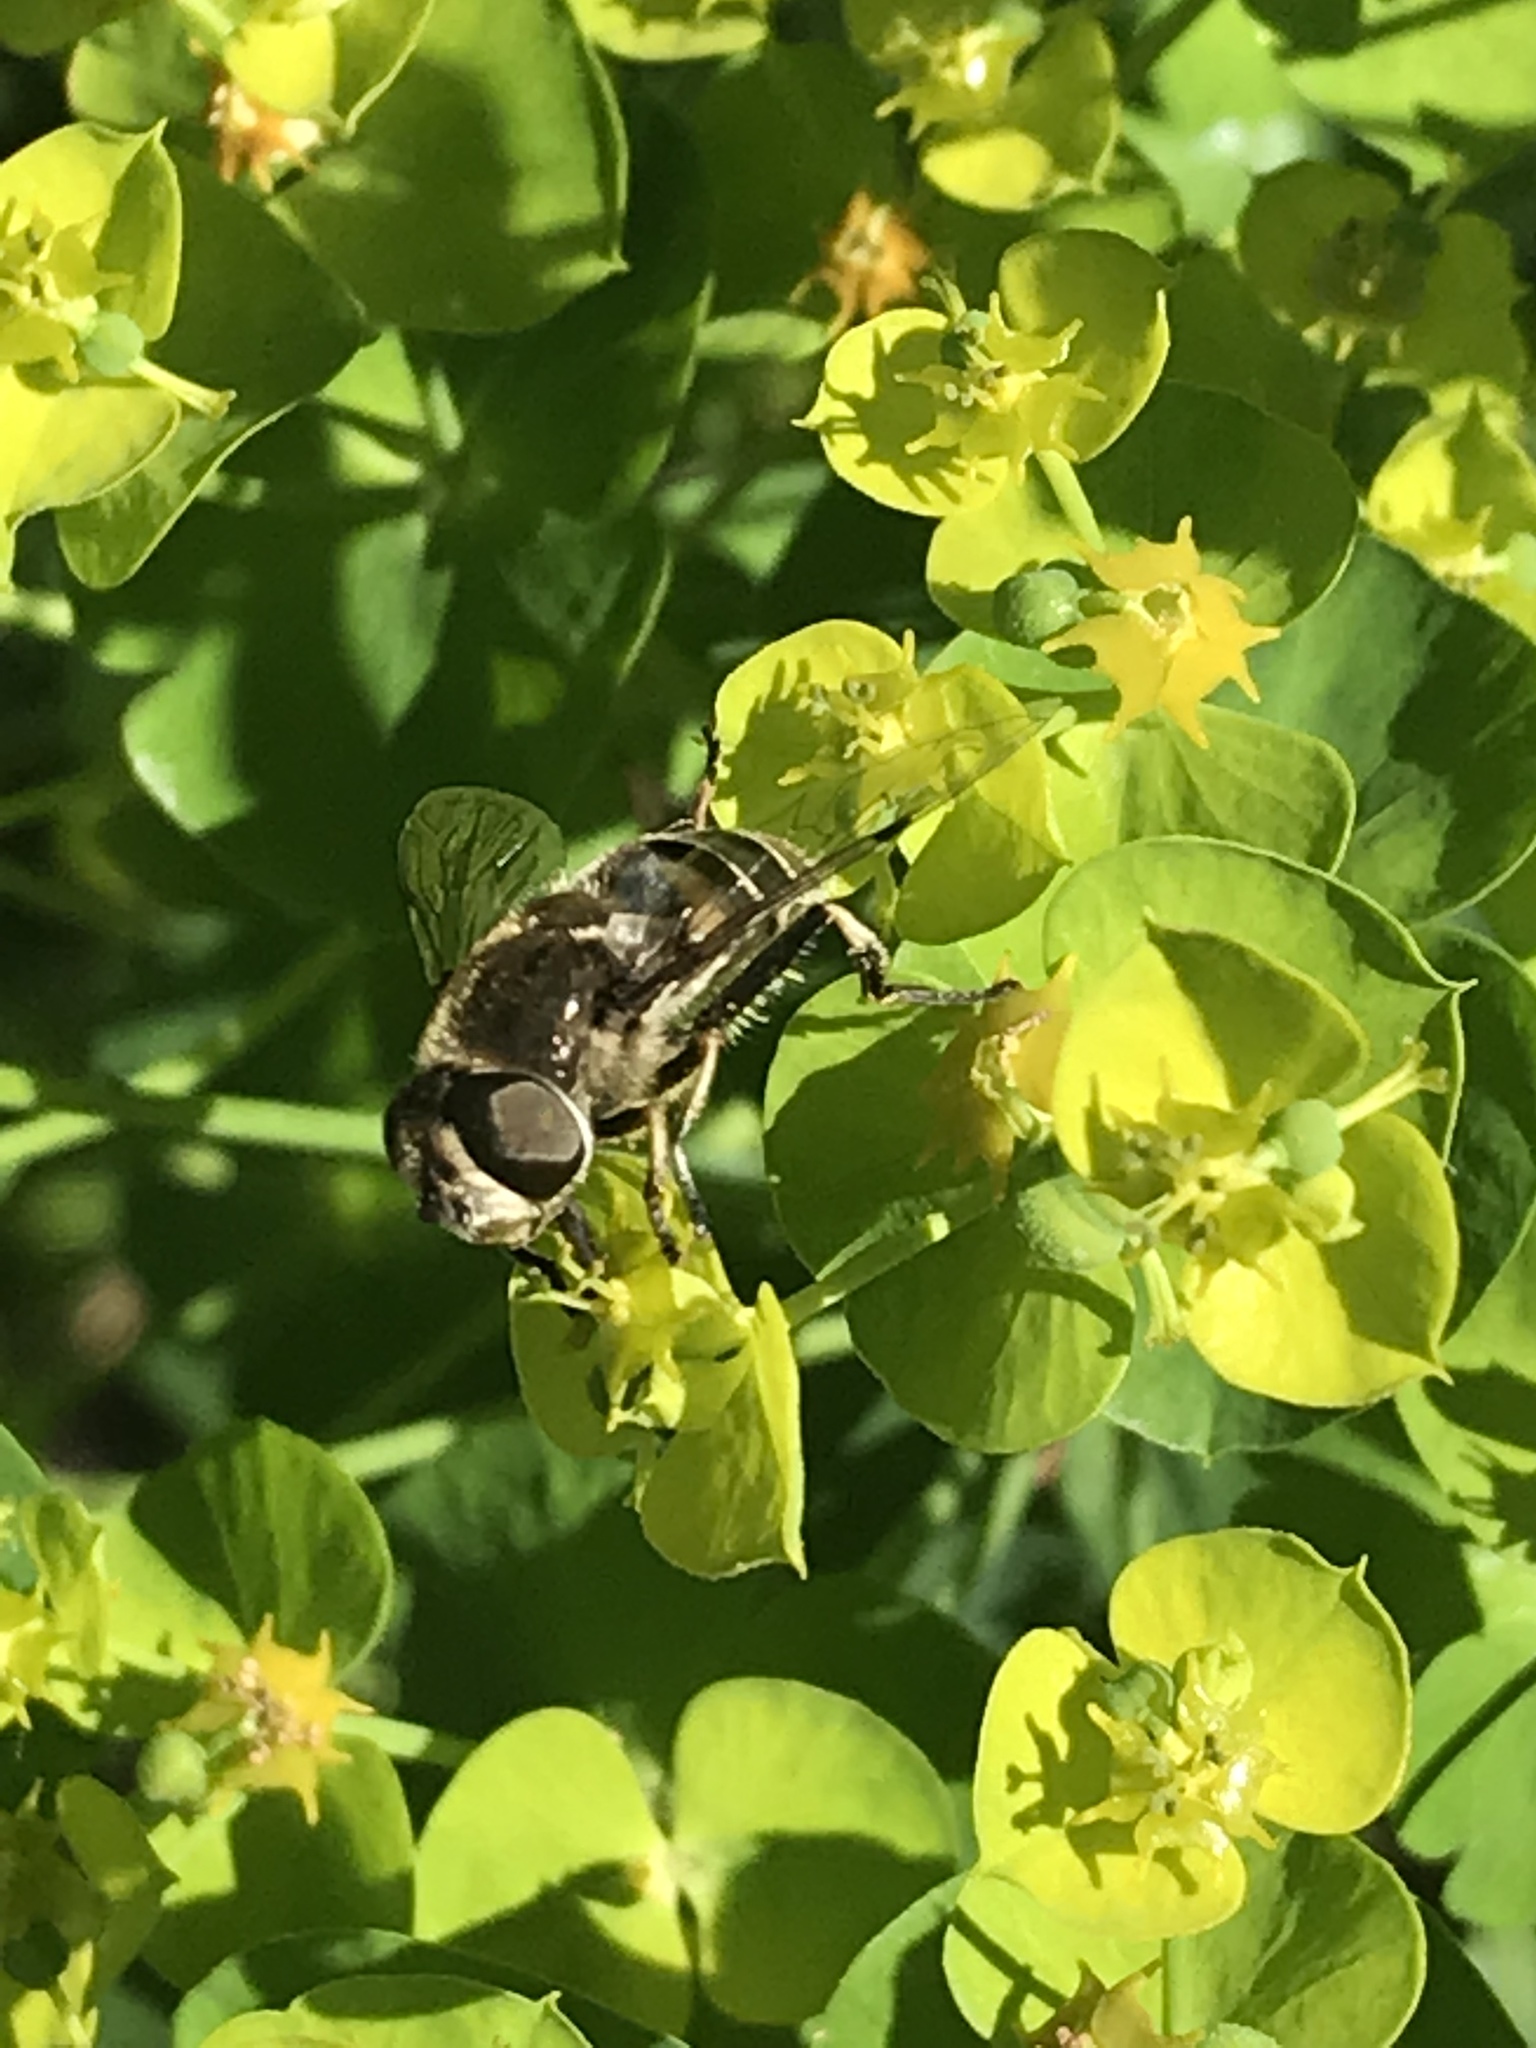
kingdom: Animalia
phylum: Arthropoda
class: Insecta
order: Diptera
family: Syrphidae
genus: Eristalis
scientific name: Eristalis dimidiata
